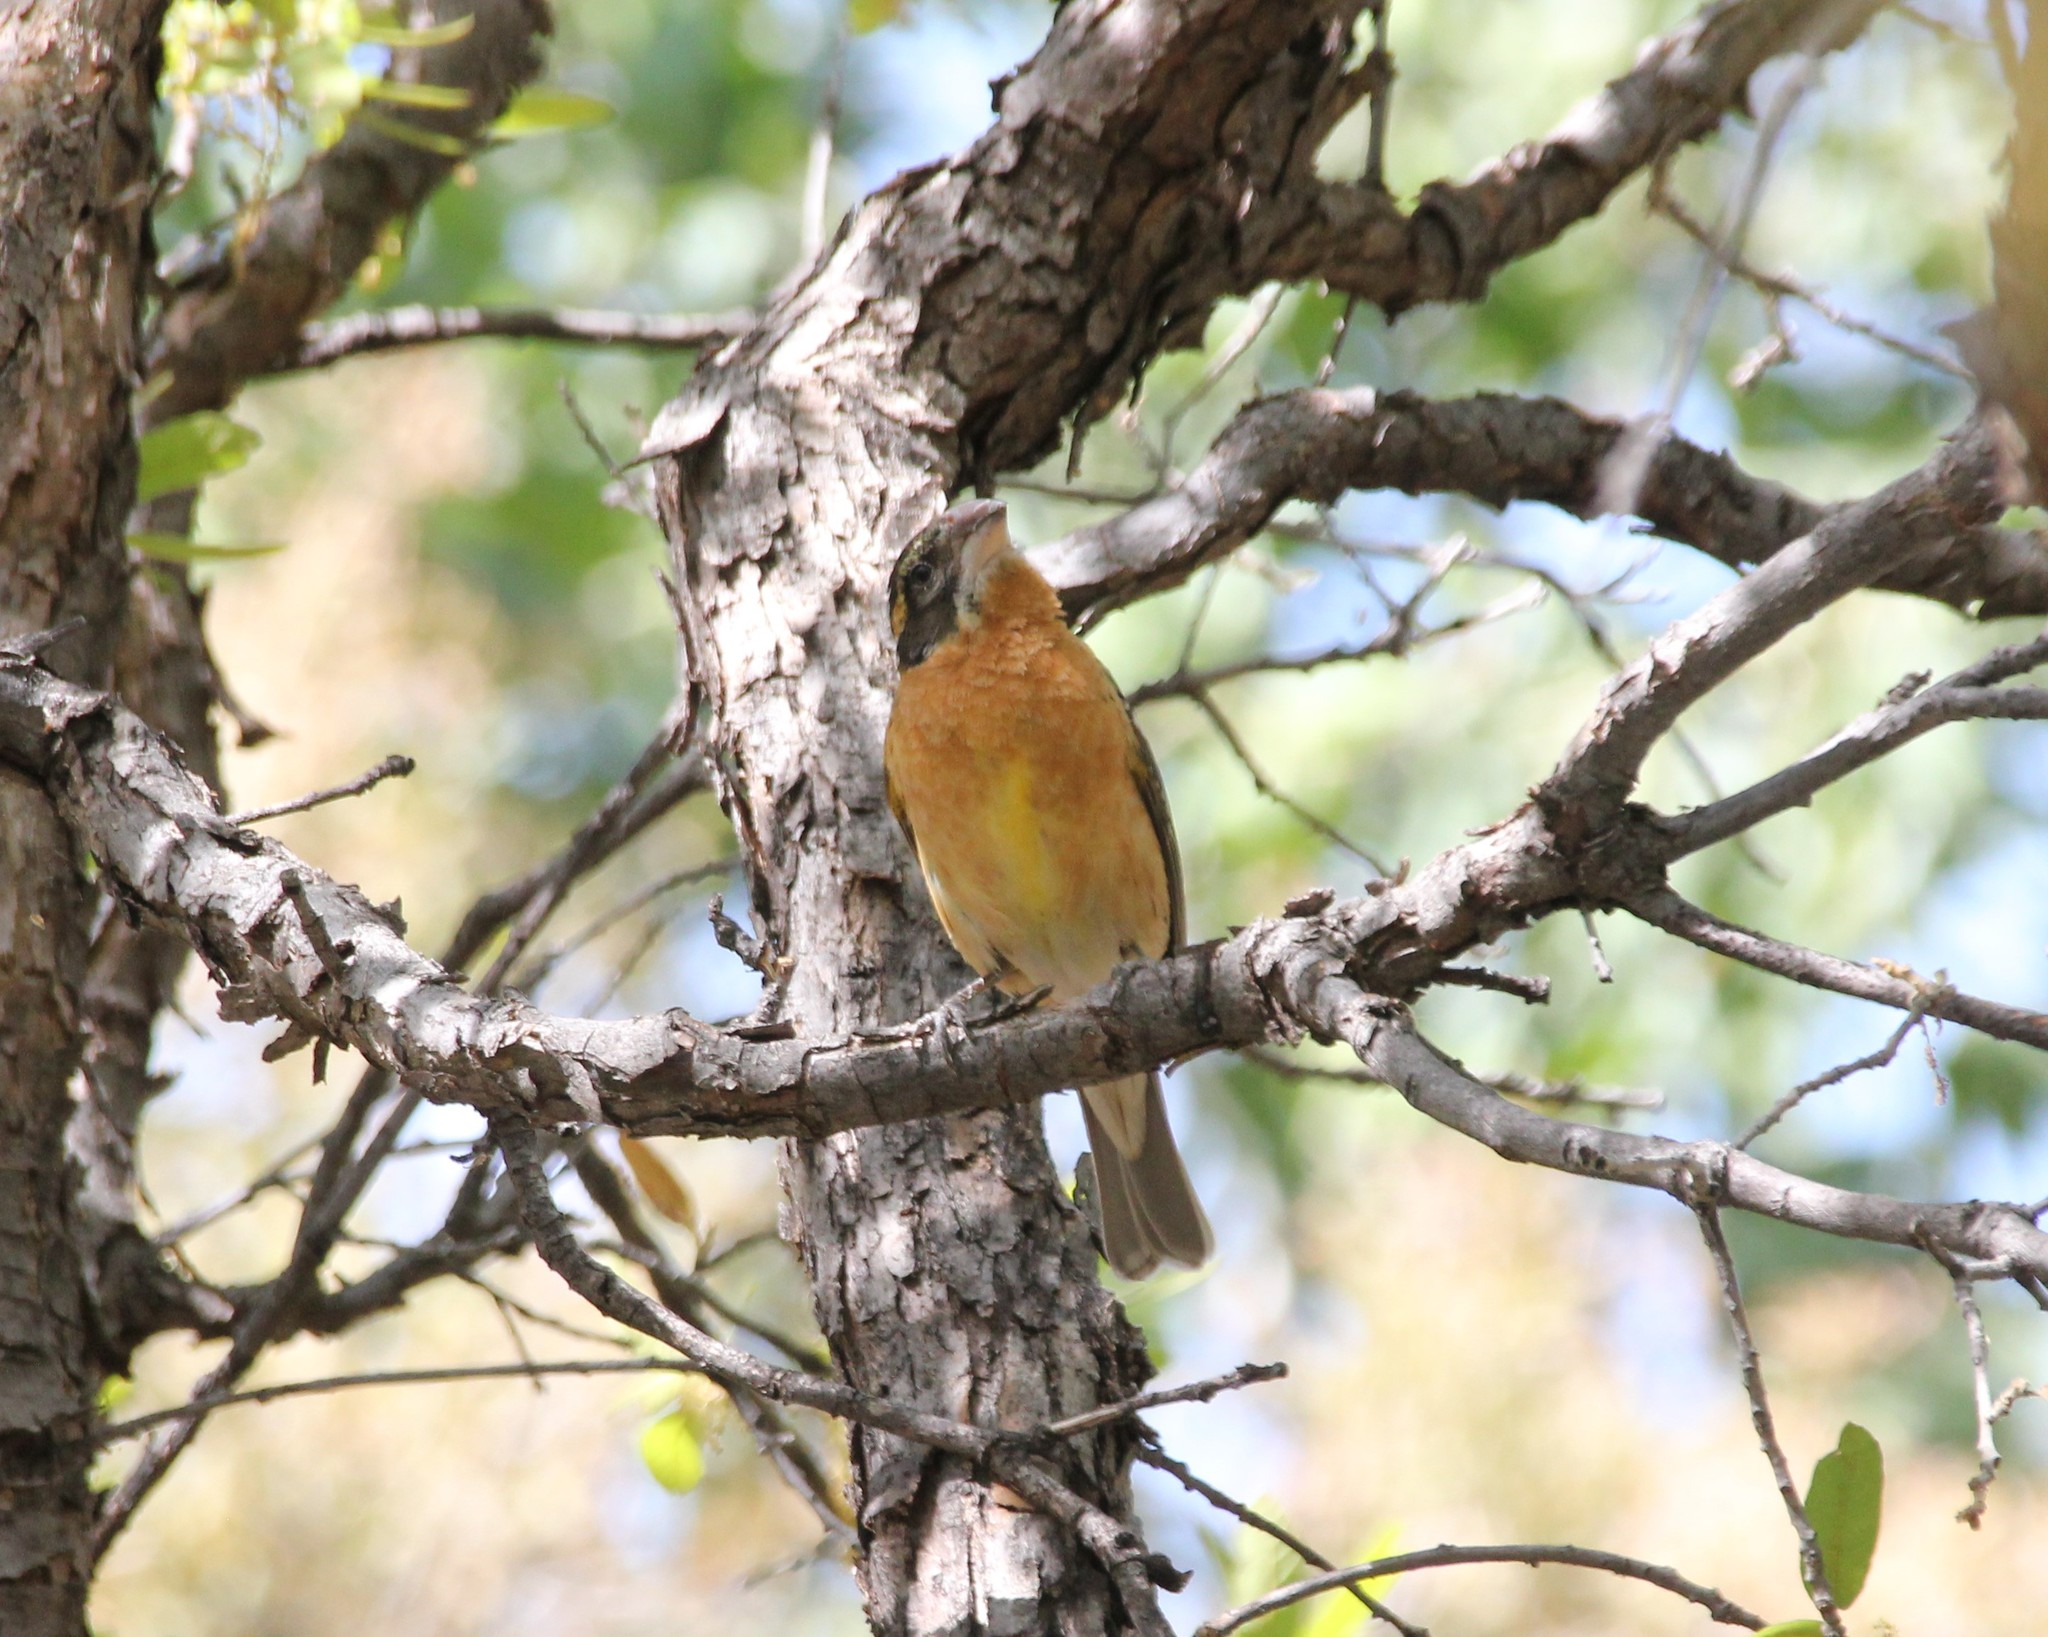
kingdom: Animalia
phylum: Chordata
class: Aves
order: Passeriformes
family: Cardinalidae
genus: Pheucticus
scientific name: Pheucticus melanocephalus
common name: Black-headed grosbeak
